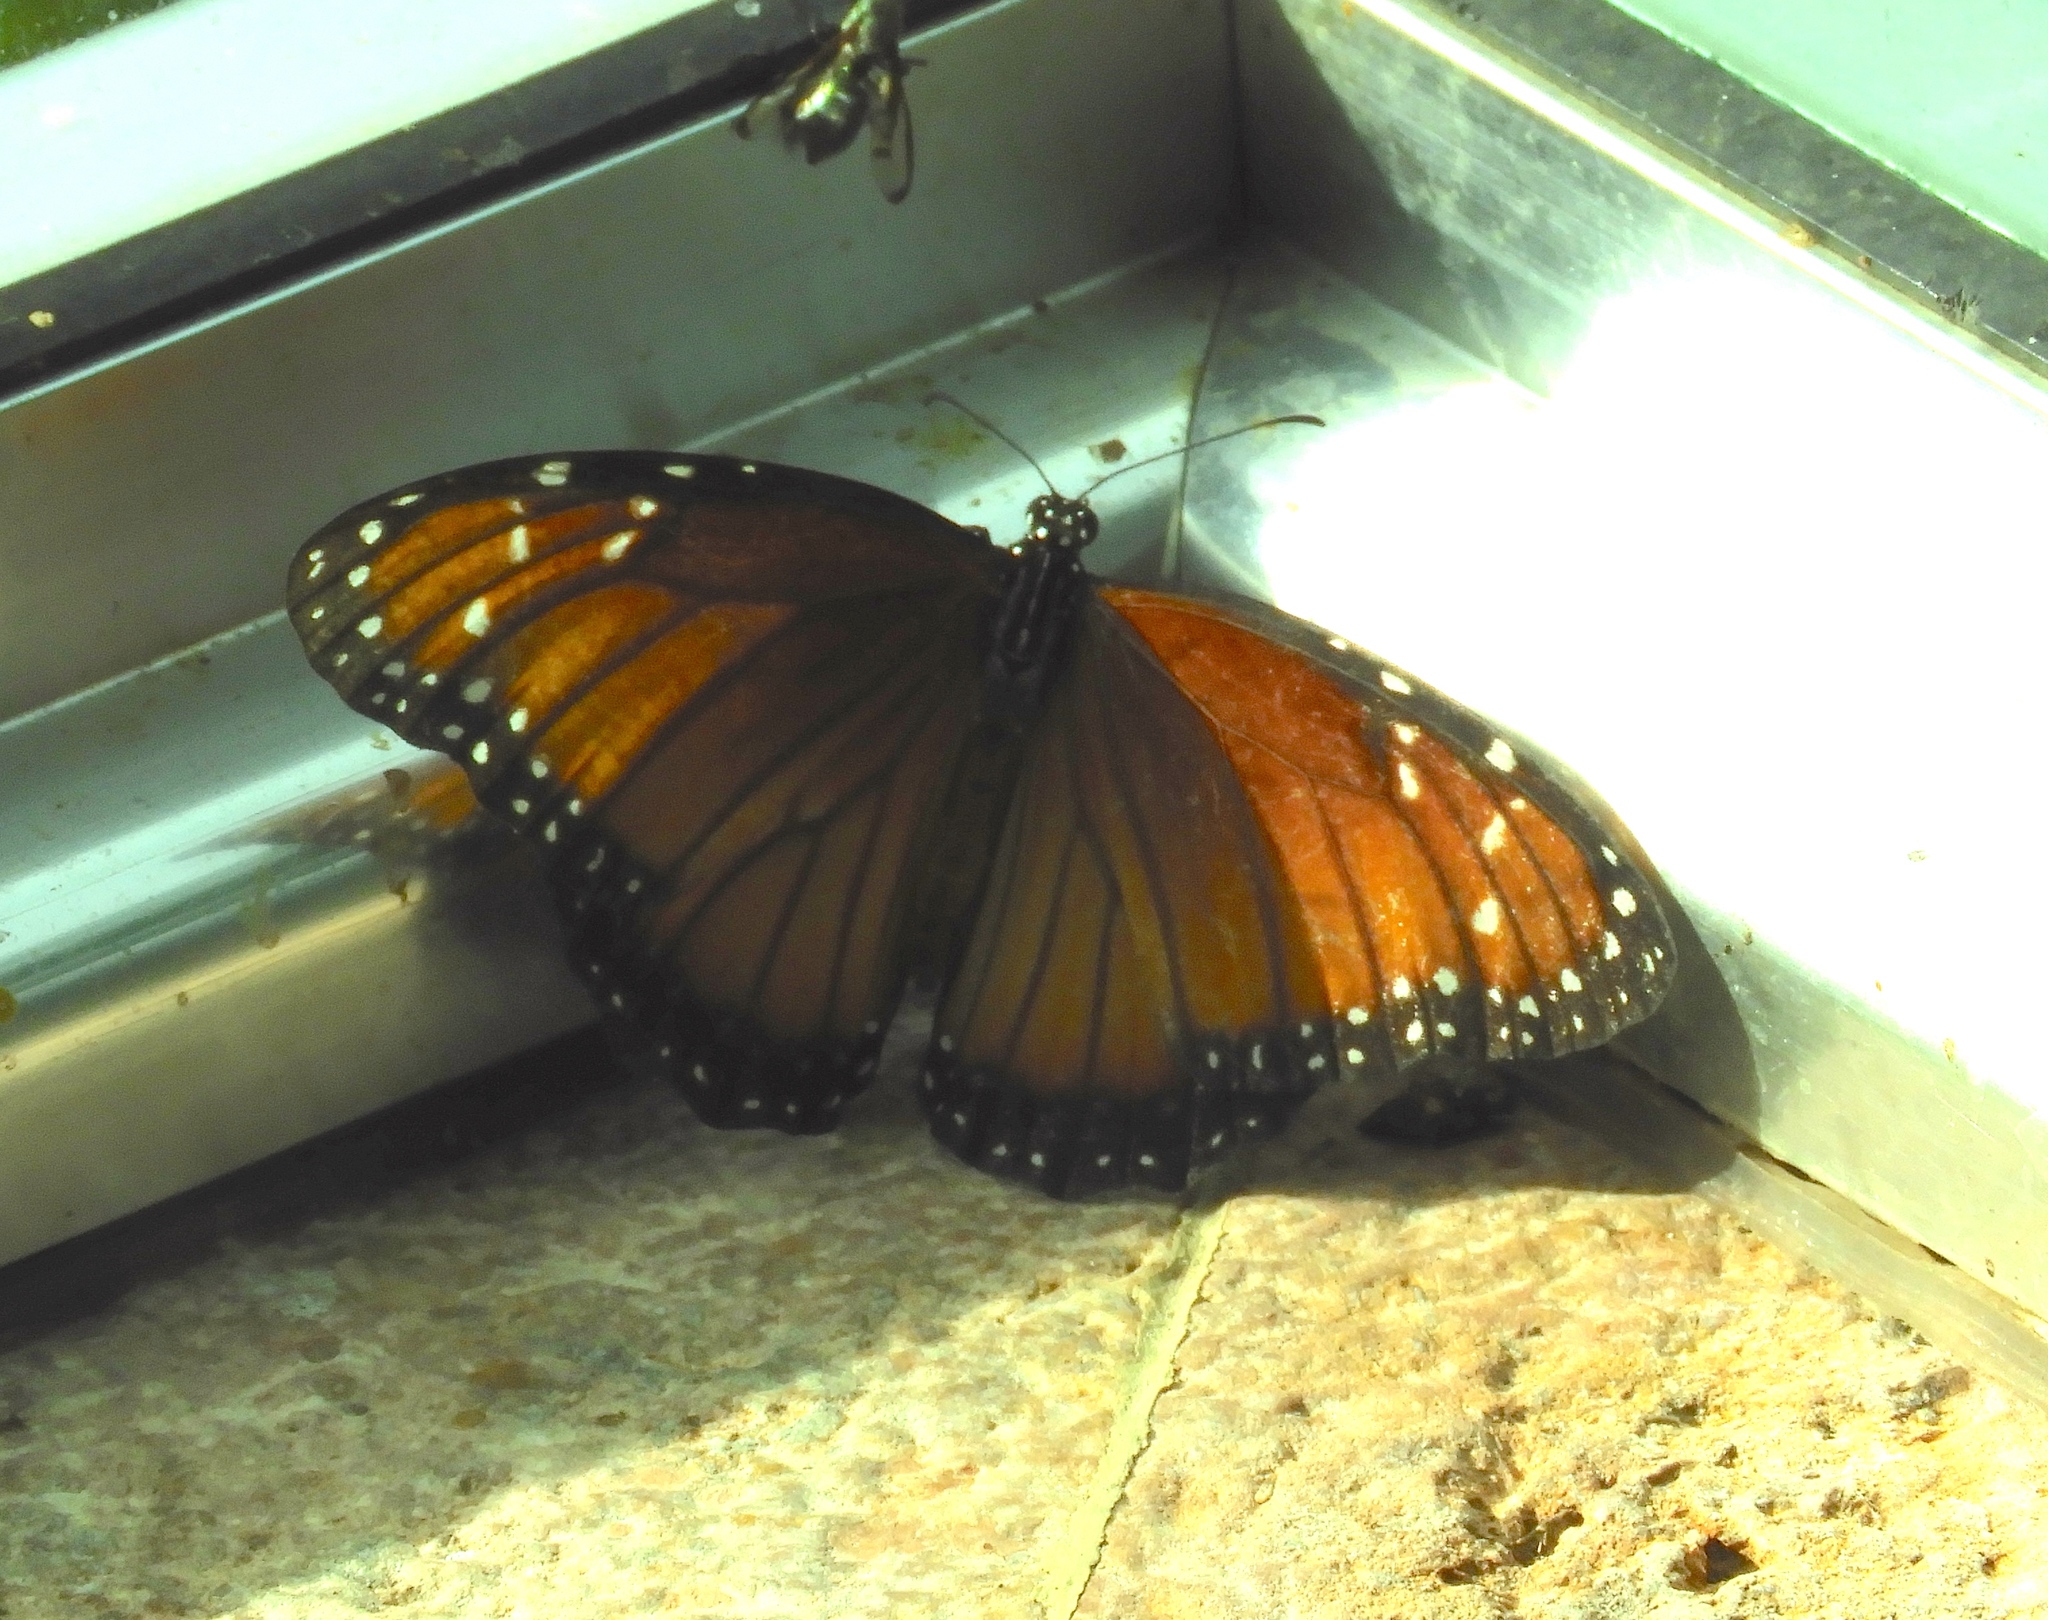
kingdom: Animalia
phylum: Arthropoda
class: Insecta
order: Lepidoptera
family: Nymphalidae
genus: Danaus
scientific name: Danaus eresimus
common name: Soldier
